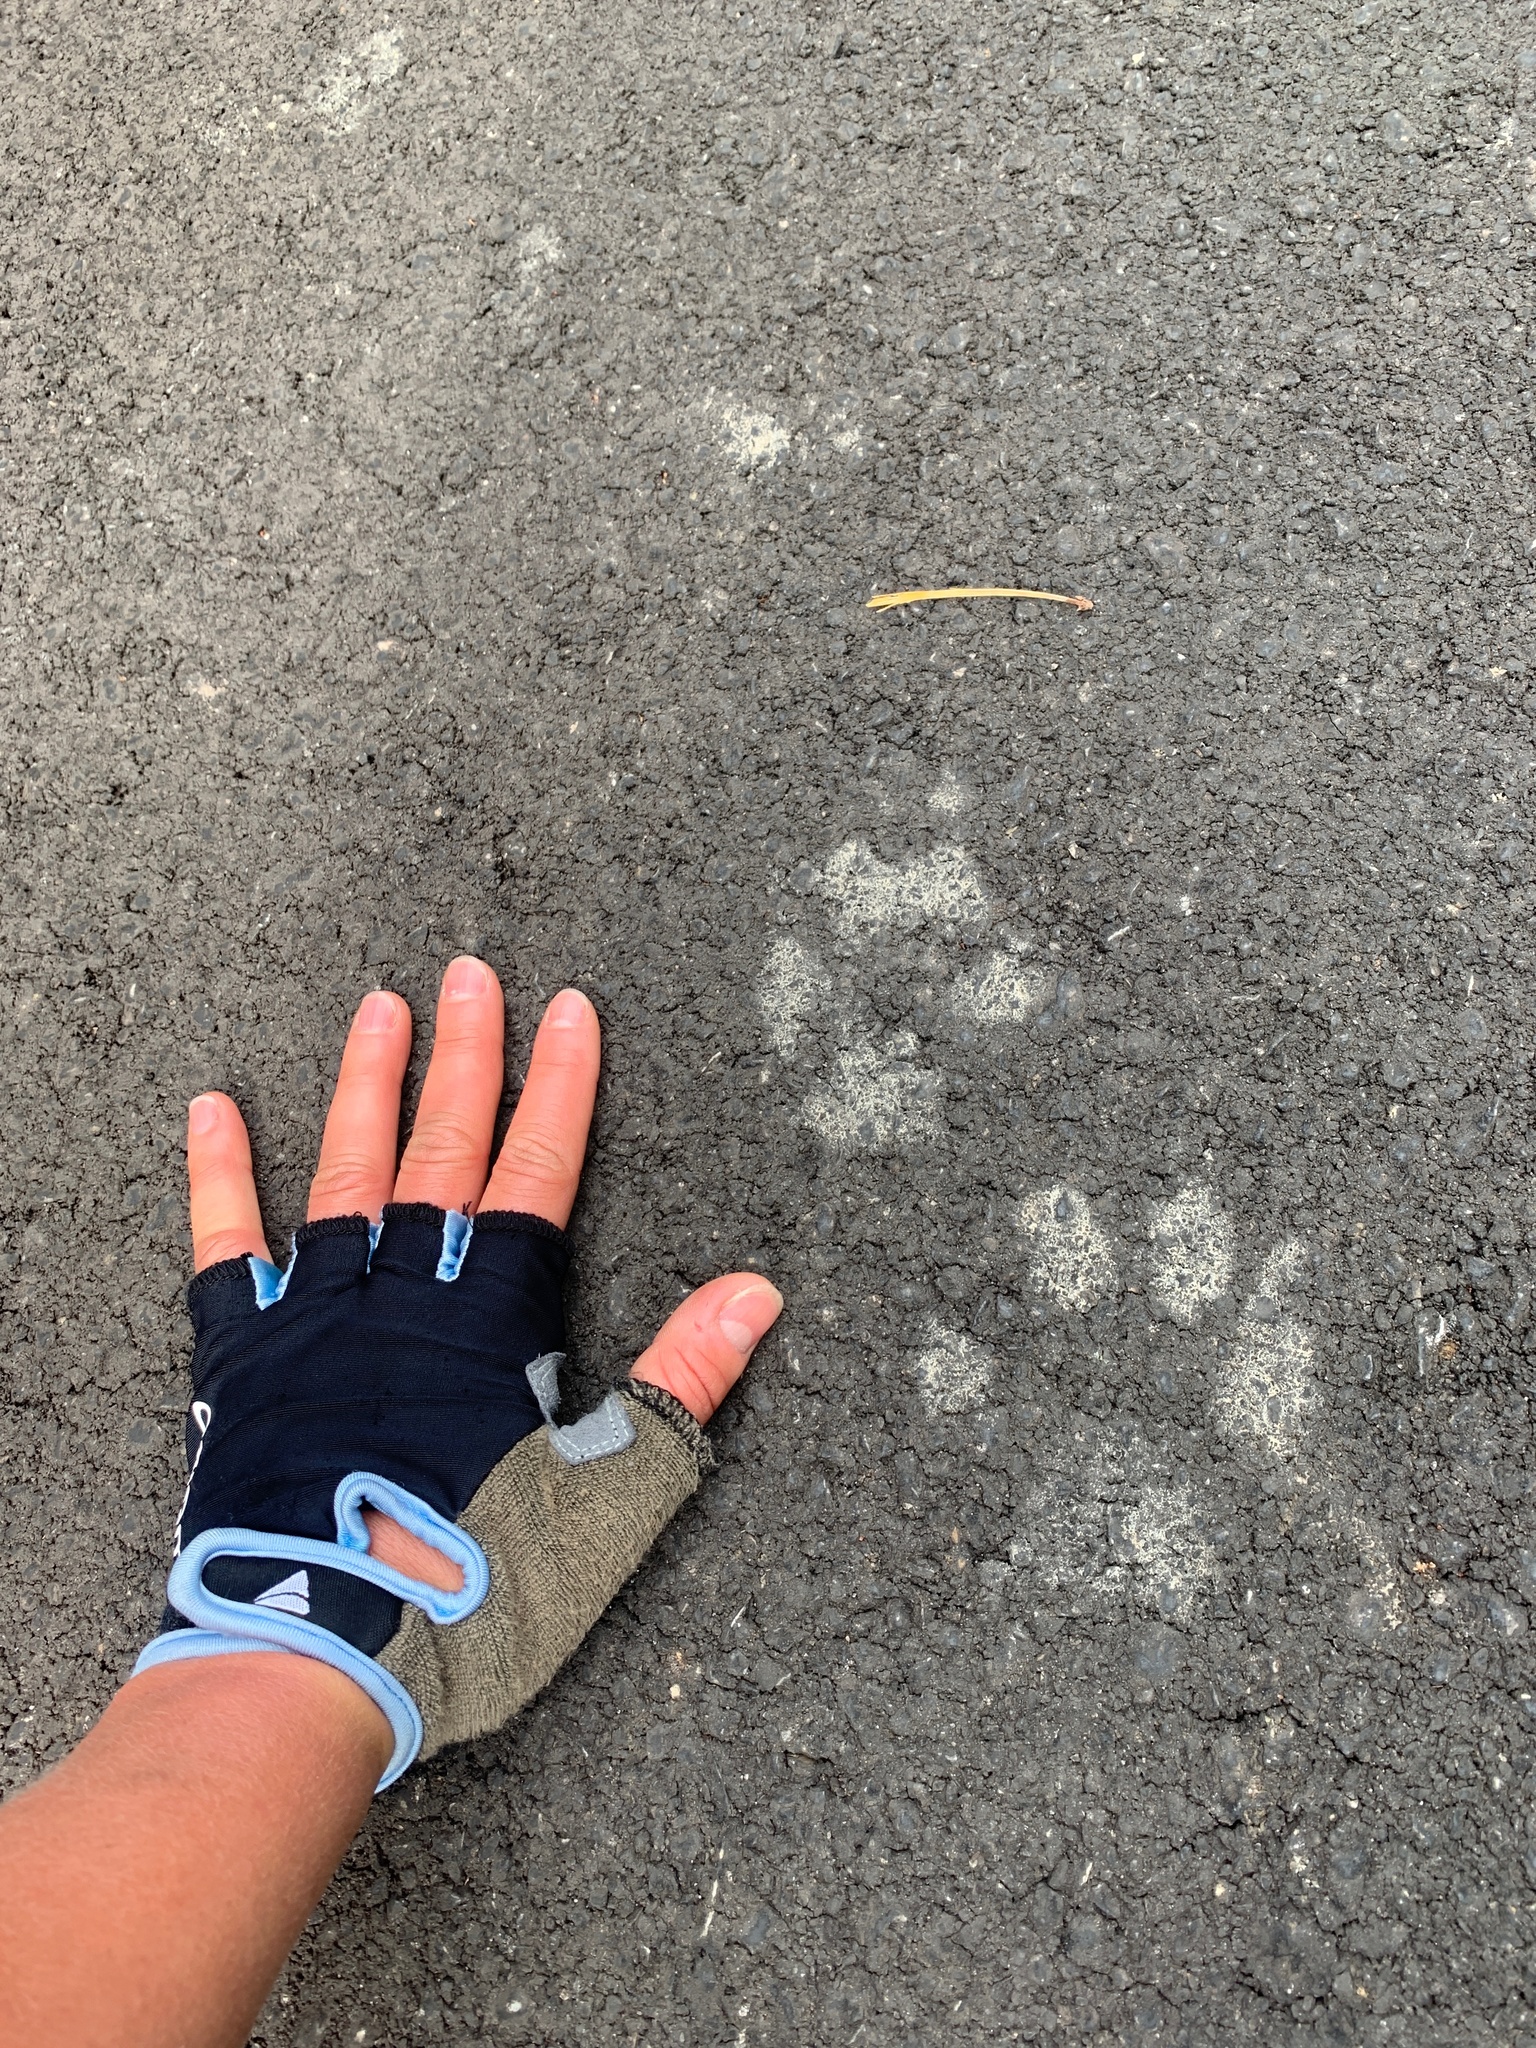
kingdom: Animalia
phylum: Chordata
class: Mammalia
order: Carnivora
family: Canidae
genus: Canis
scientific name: Canis lupus
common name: Gray wolf
